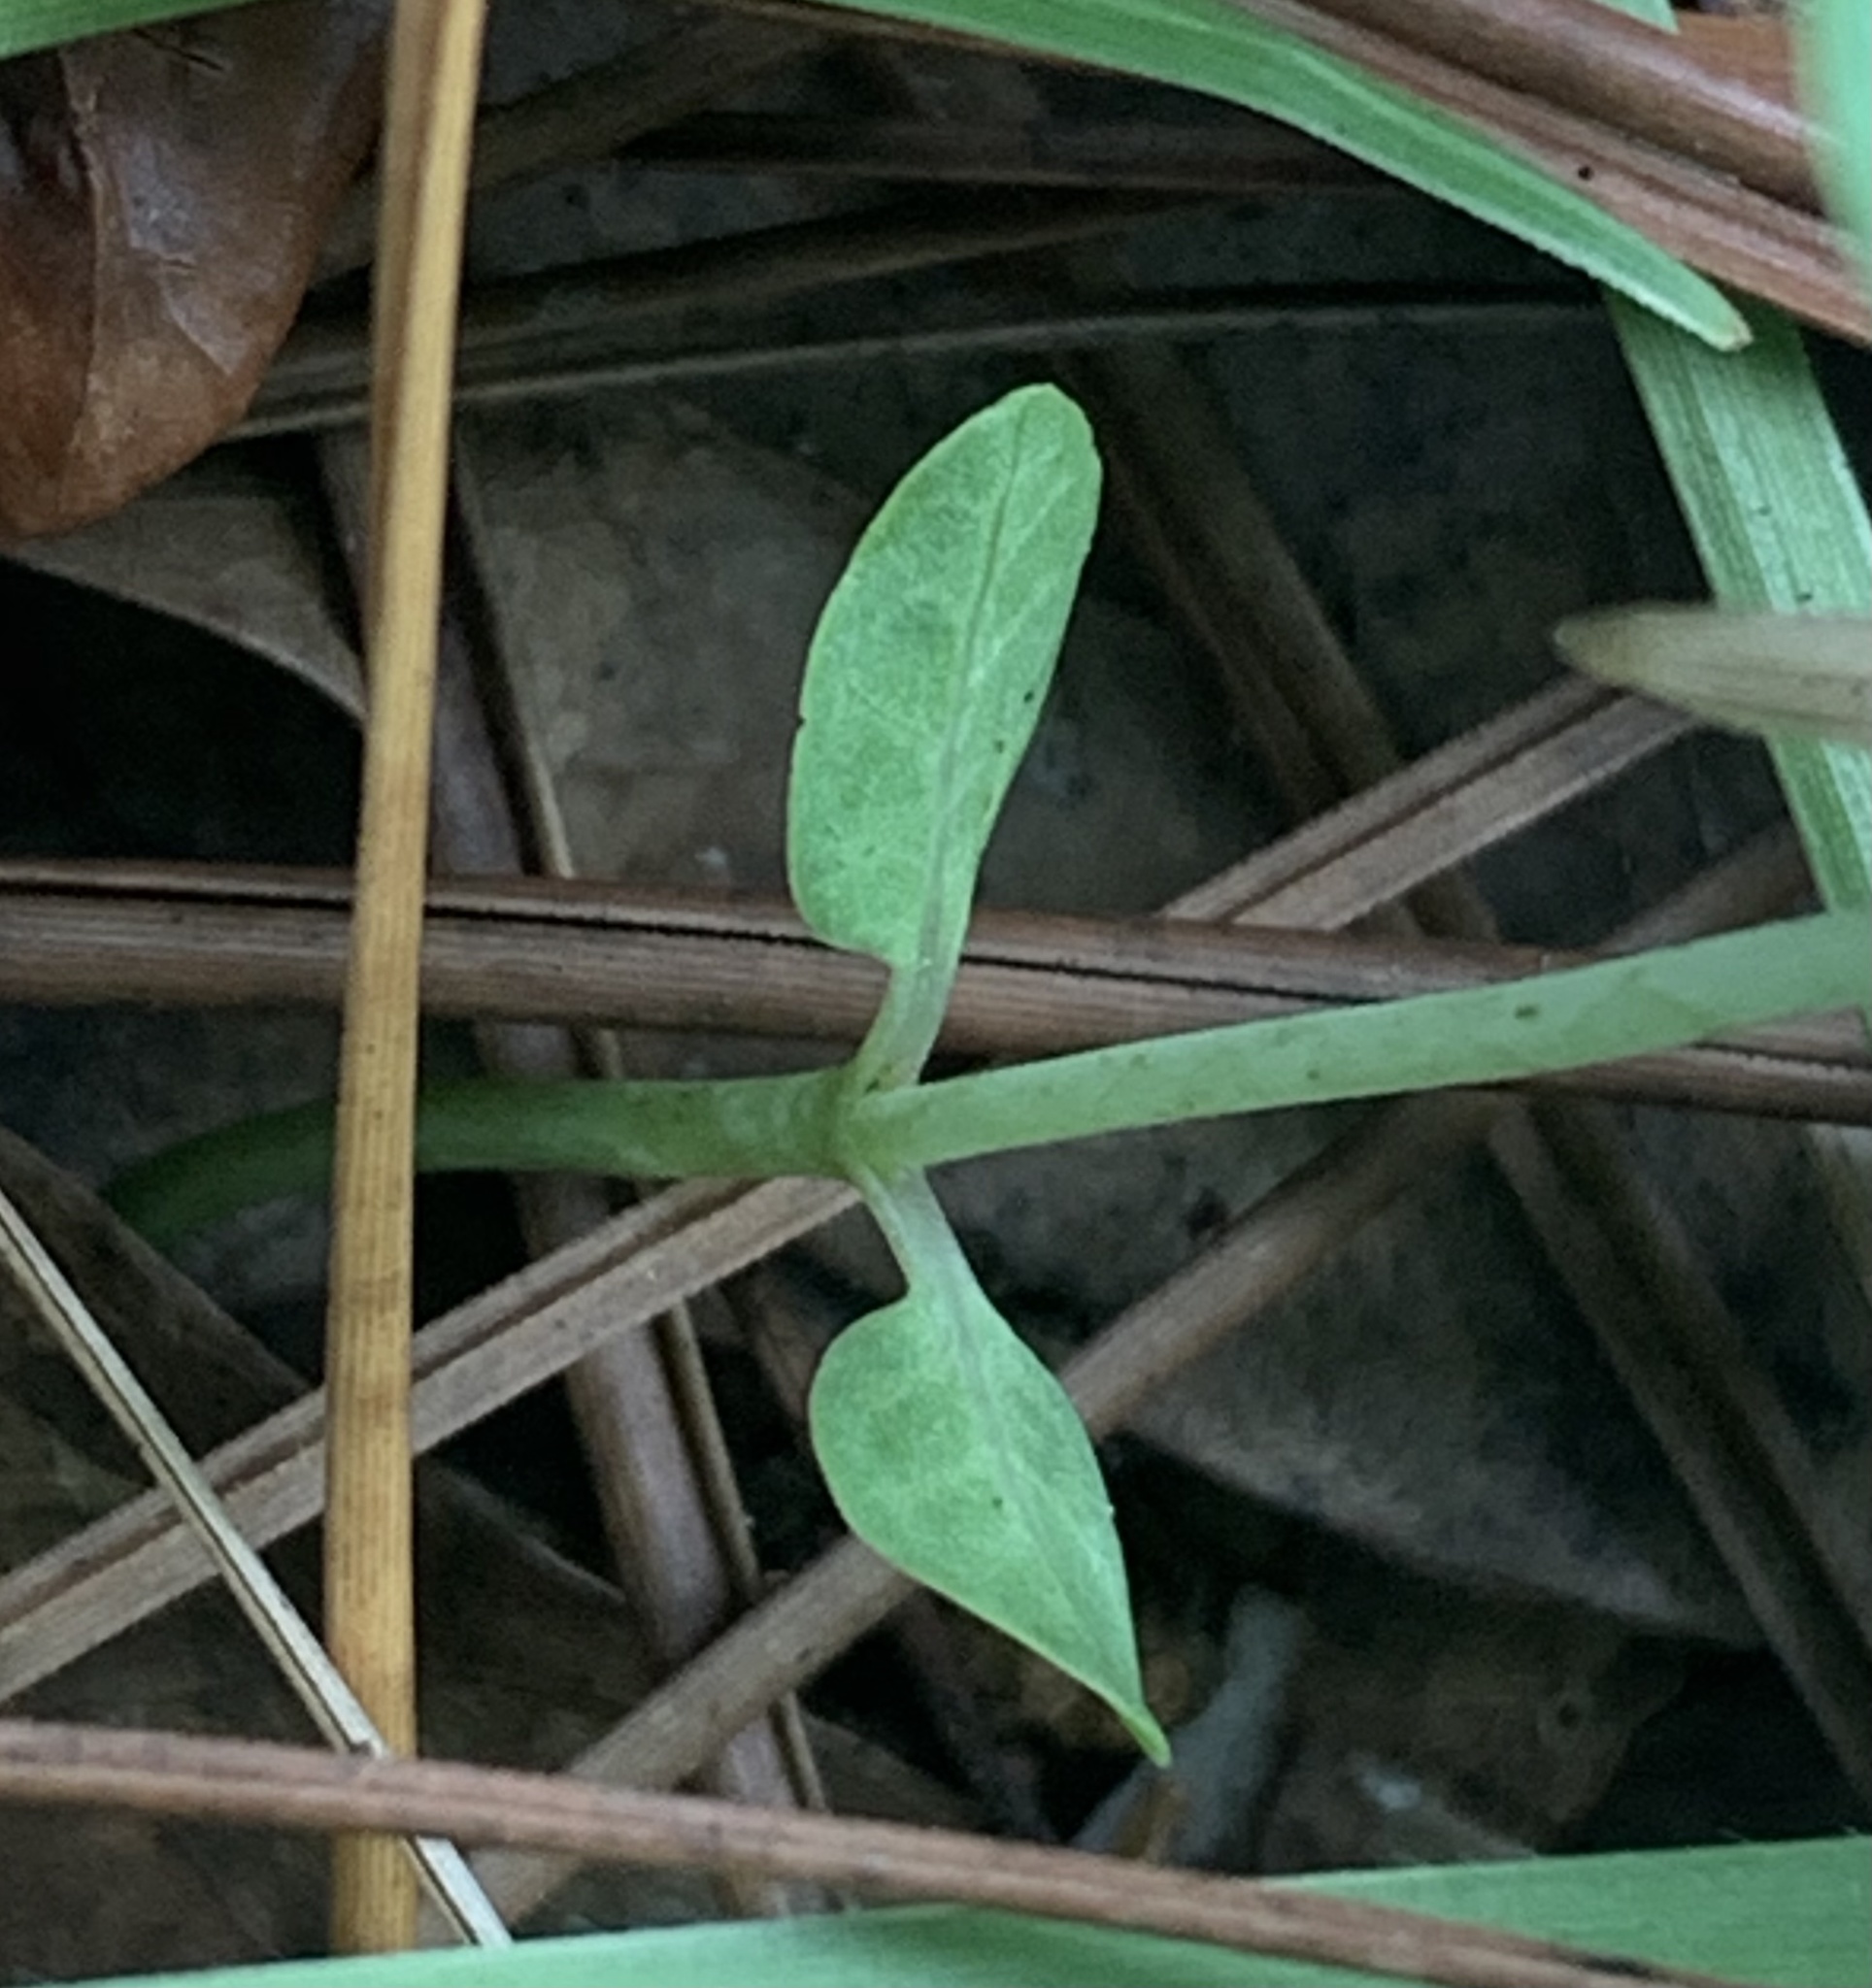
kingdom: Plantae
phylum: Tracheophyta
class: Magnoliopsida
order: Gentianales
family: Apocynaceae
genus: Asclepias
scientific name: Asclepias humistrata
